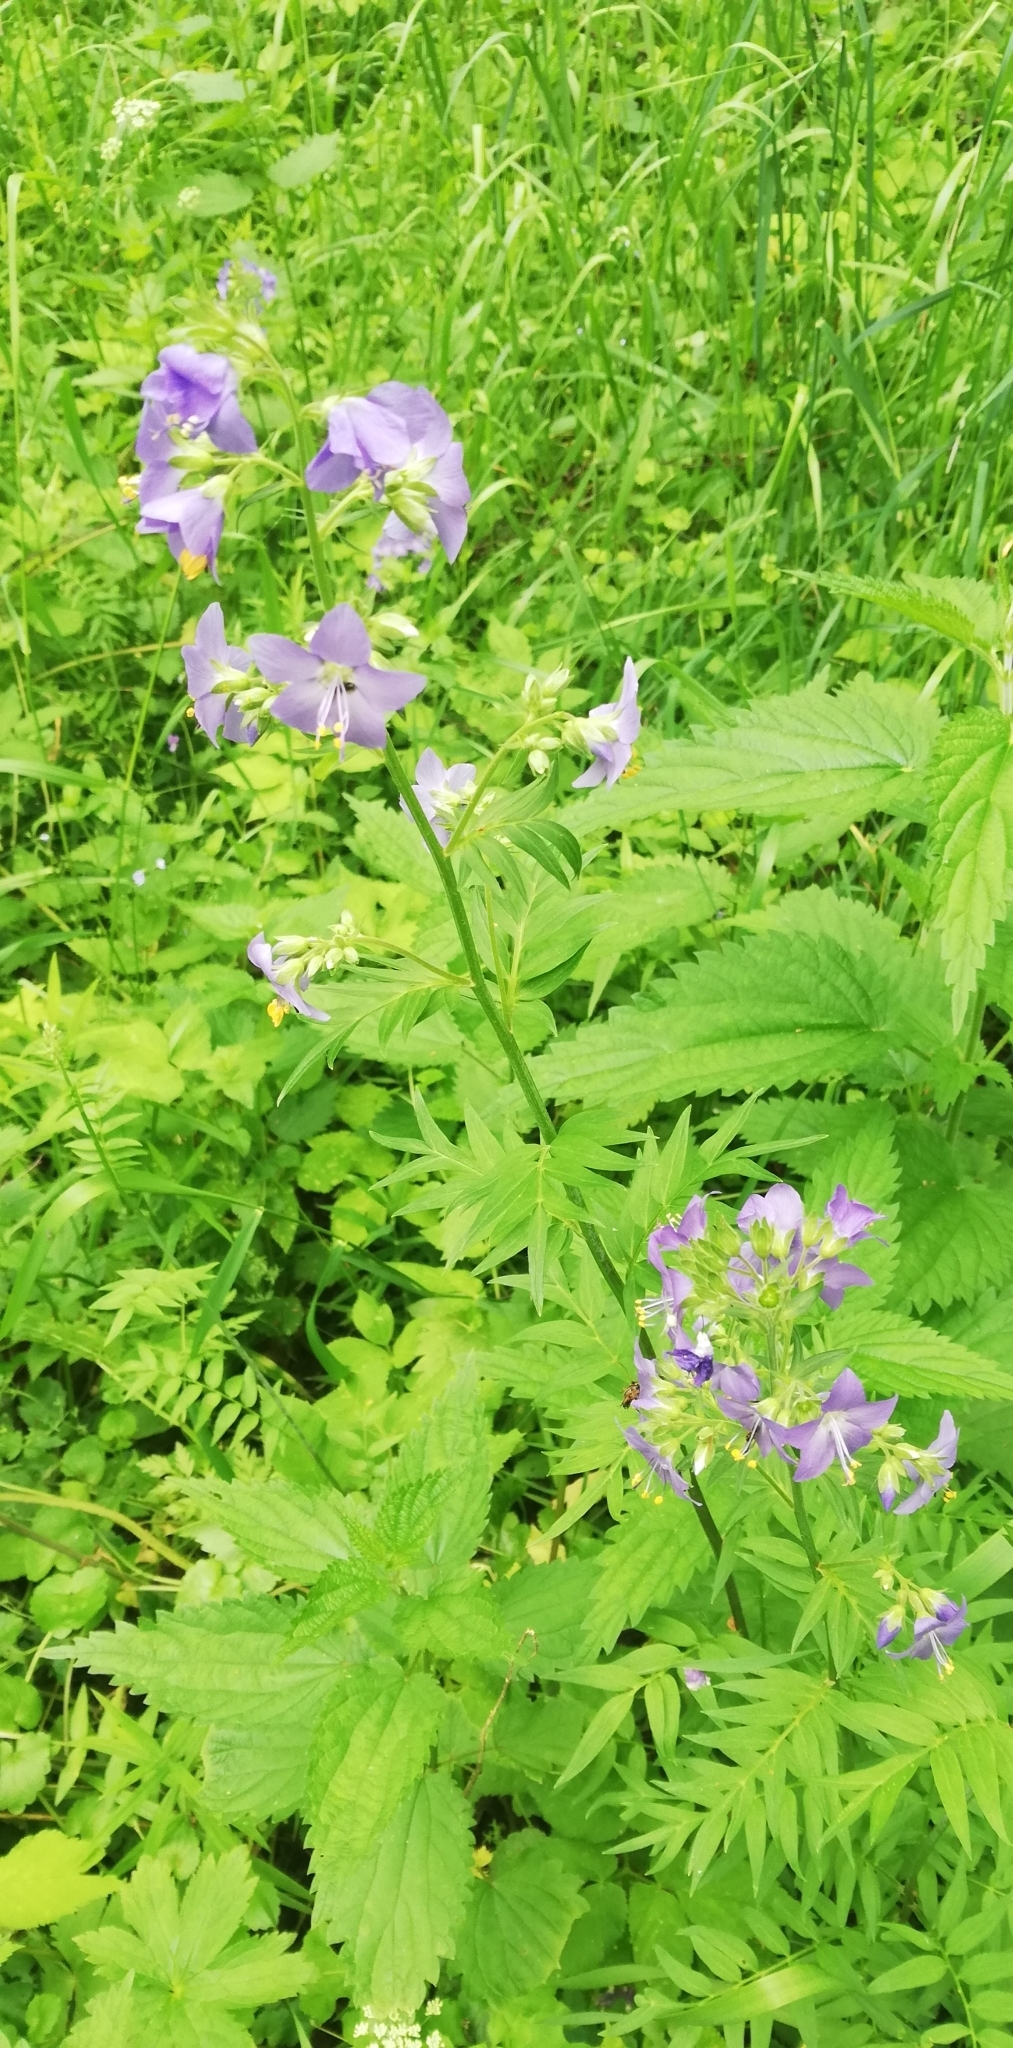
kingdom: Plantae
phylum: Tracheophyta
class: Magnoliopsida
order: Ericales
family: Polemoniaceae
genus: Polemonium
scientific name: Polemonium caeruleum
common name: Jacob's-ladder
